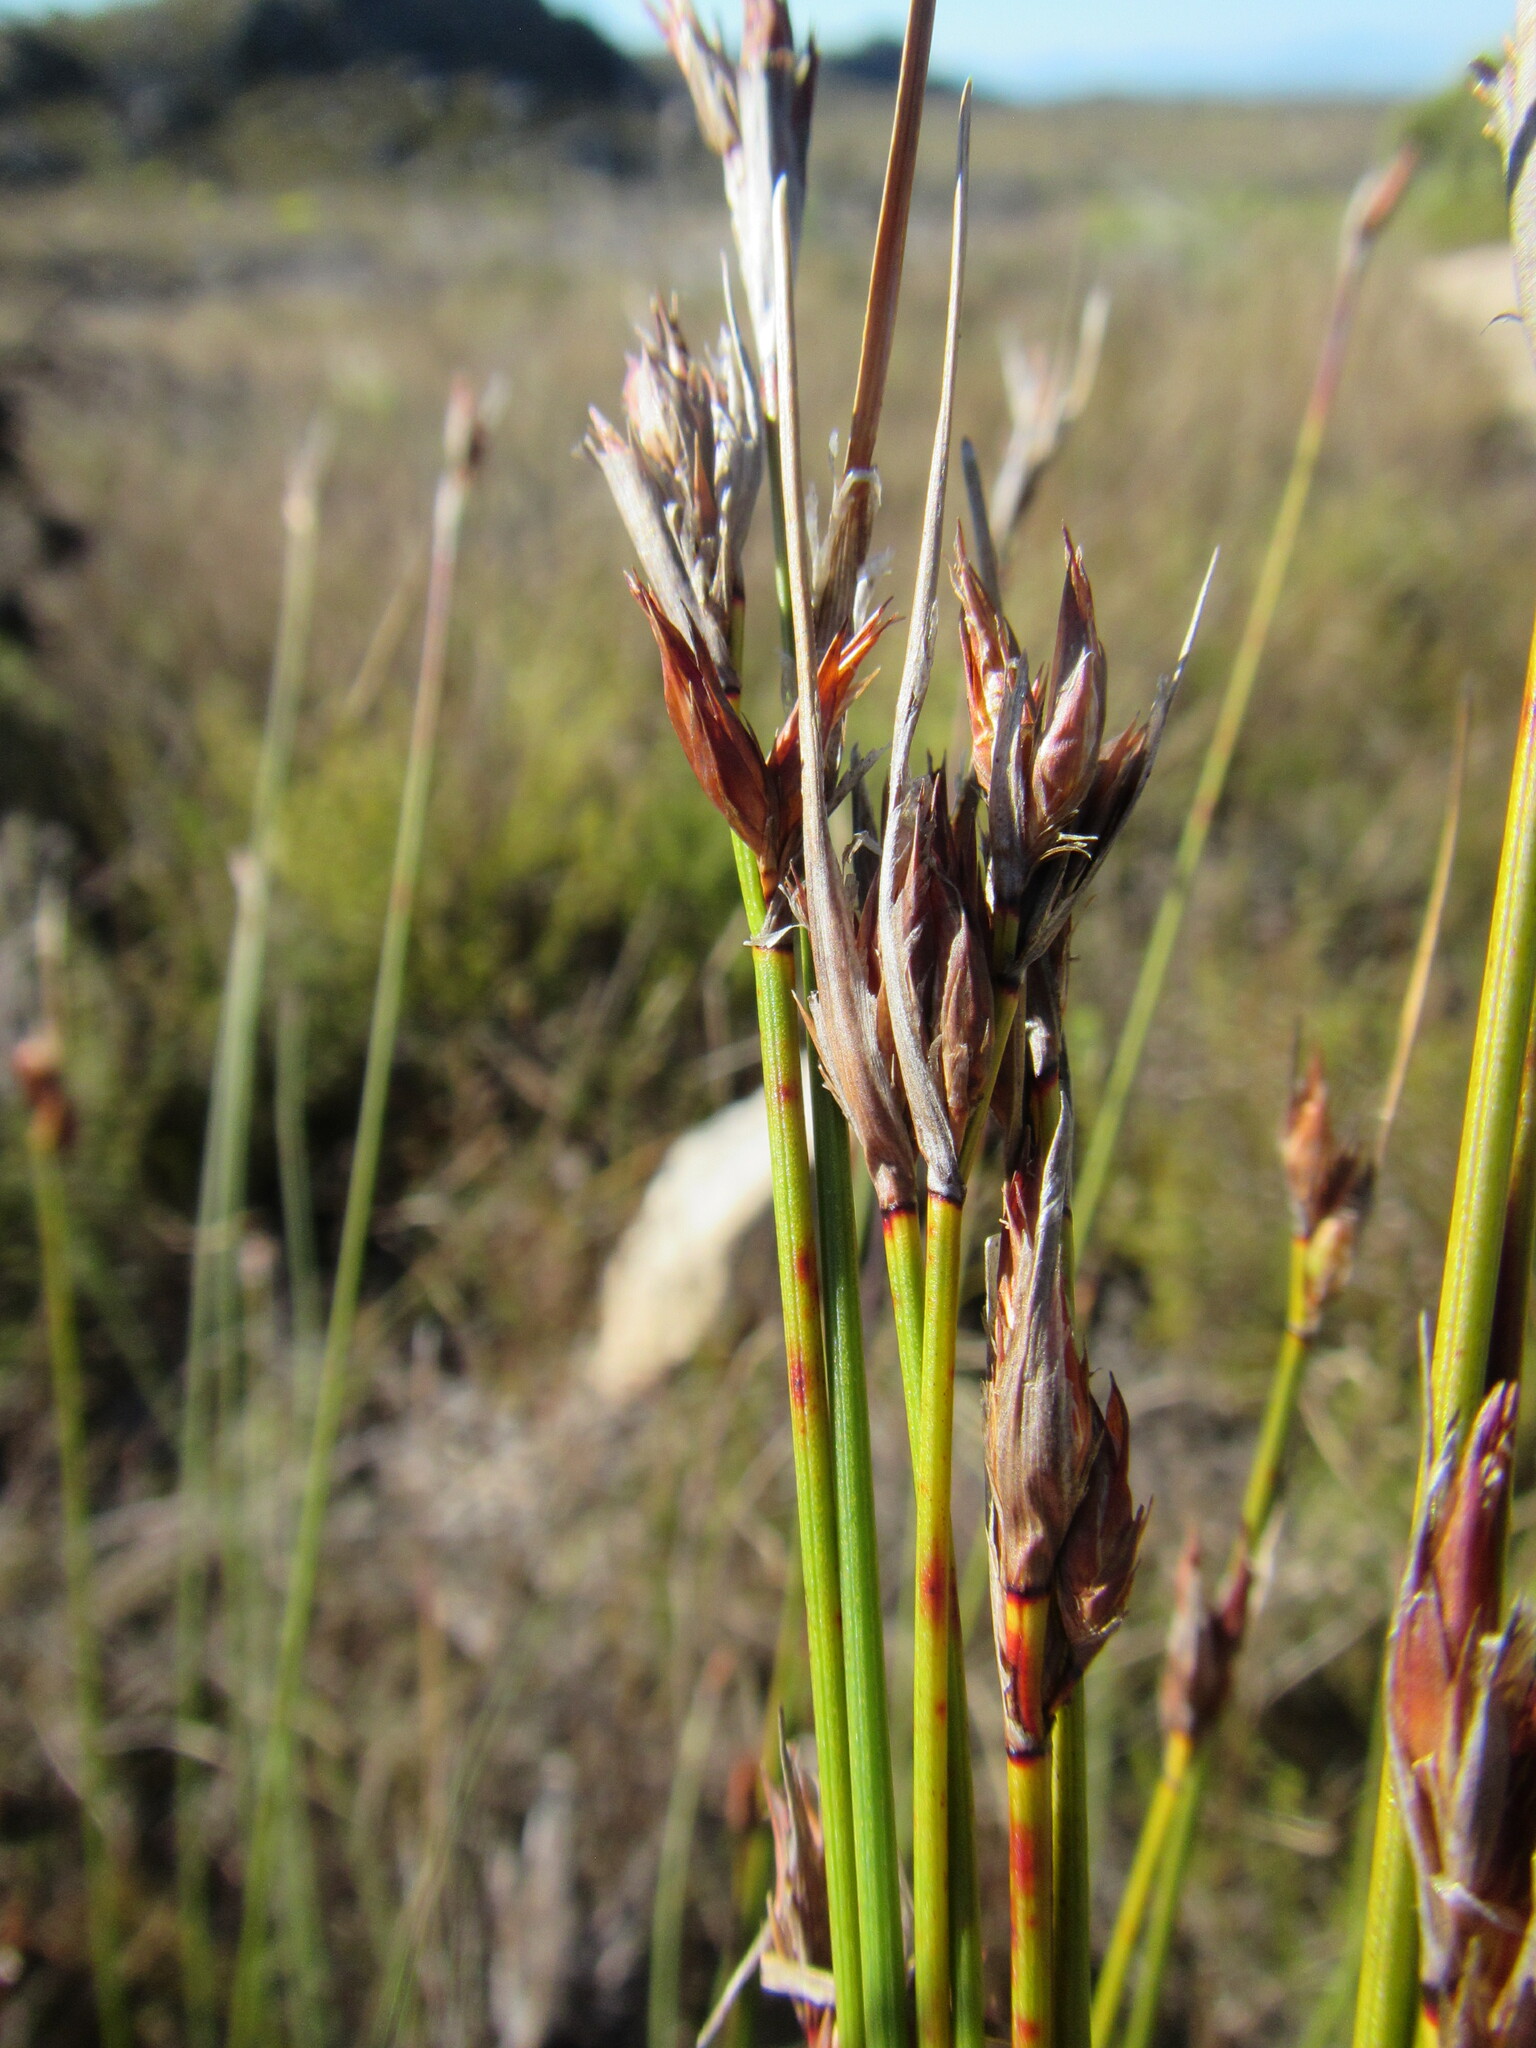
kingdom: Plantae
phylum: Tracheophyta
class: Liliopsida
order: Poales
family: Cyperaceae
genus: Schoenus
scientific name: Schoenus megacarpus
